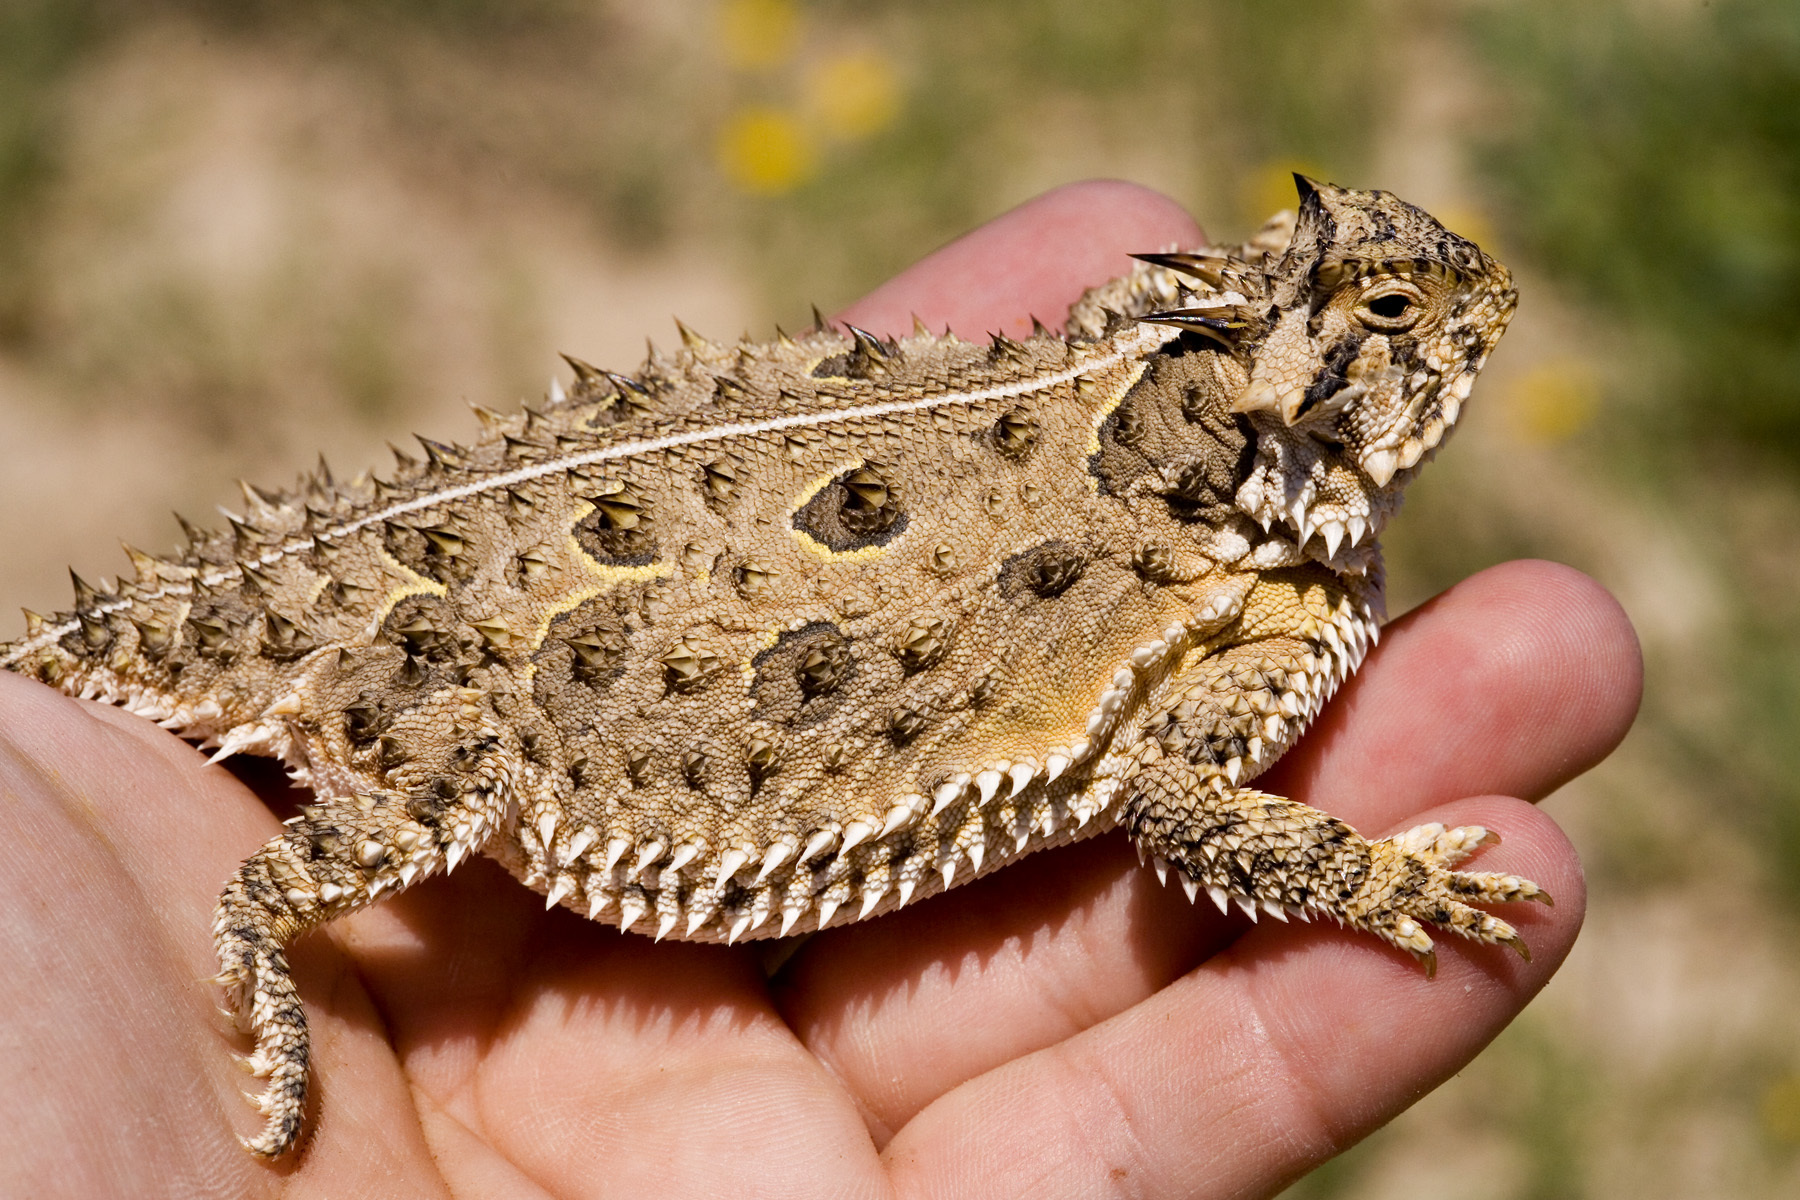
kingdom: Animalia
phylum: Chordata
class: Squamata
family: Phrynosomatidae
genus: Phrynosoma
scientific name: Phrynosoma cornutum
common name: Texas horned lizard
